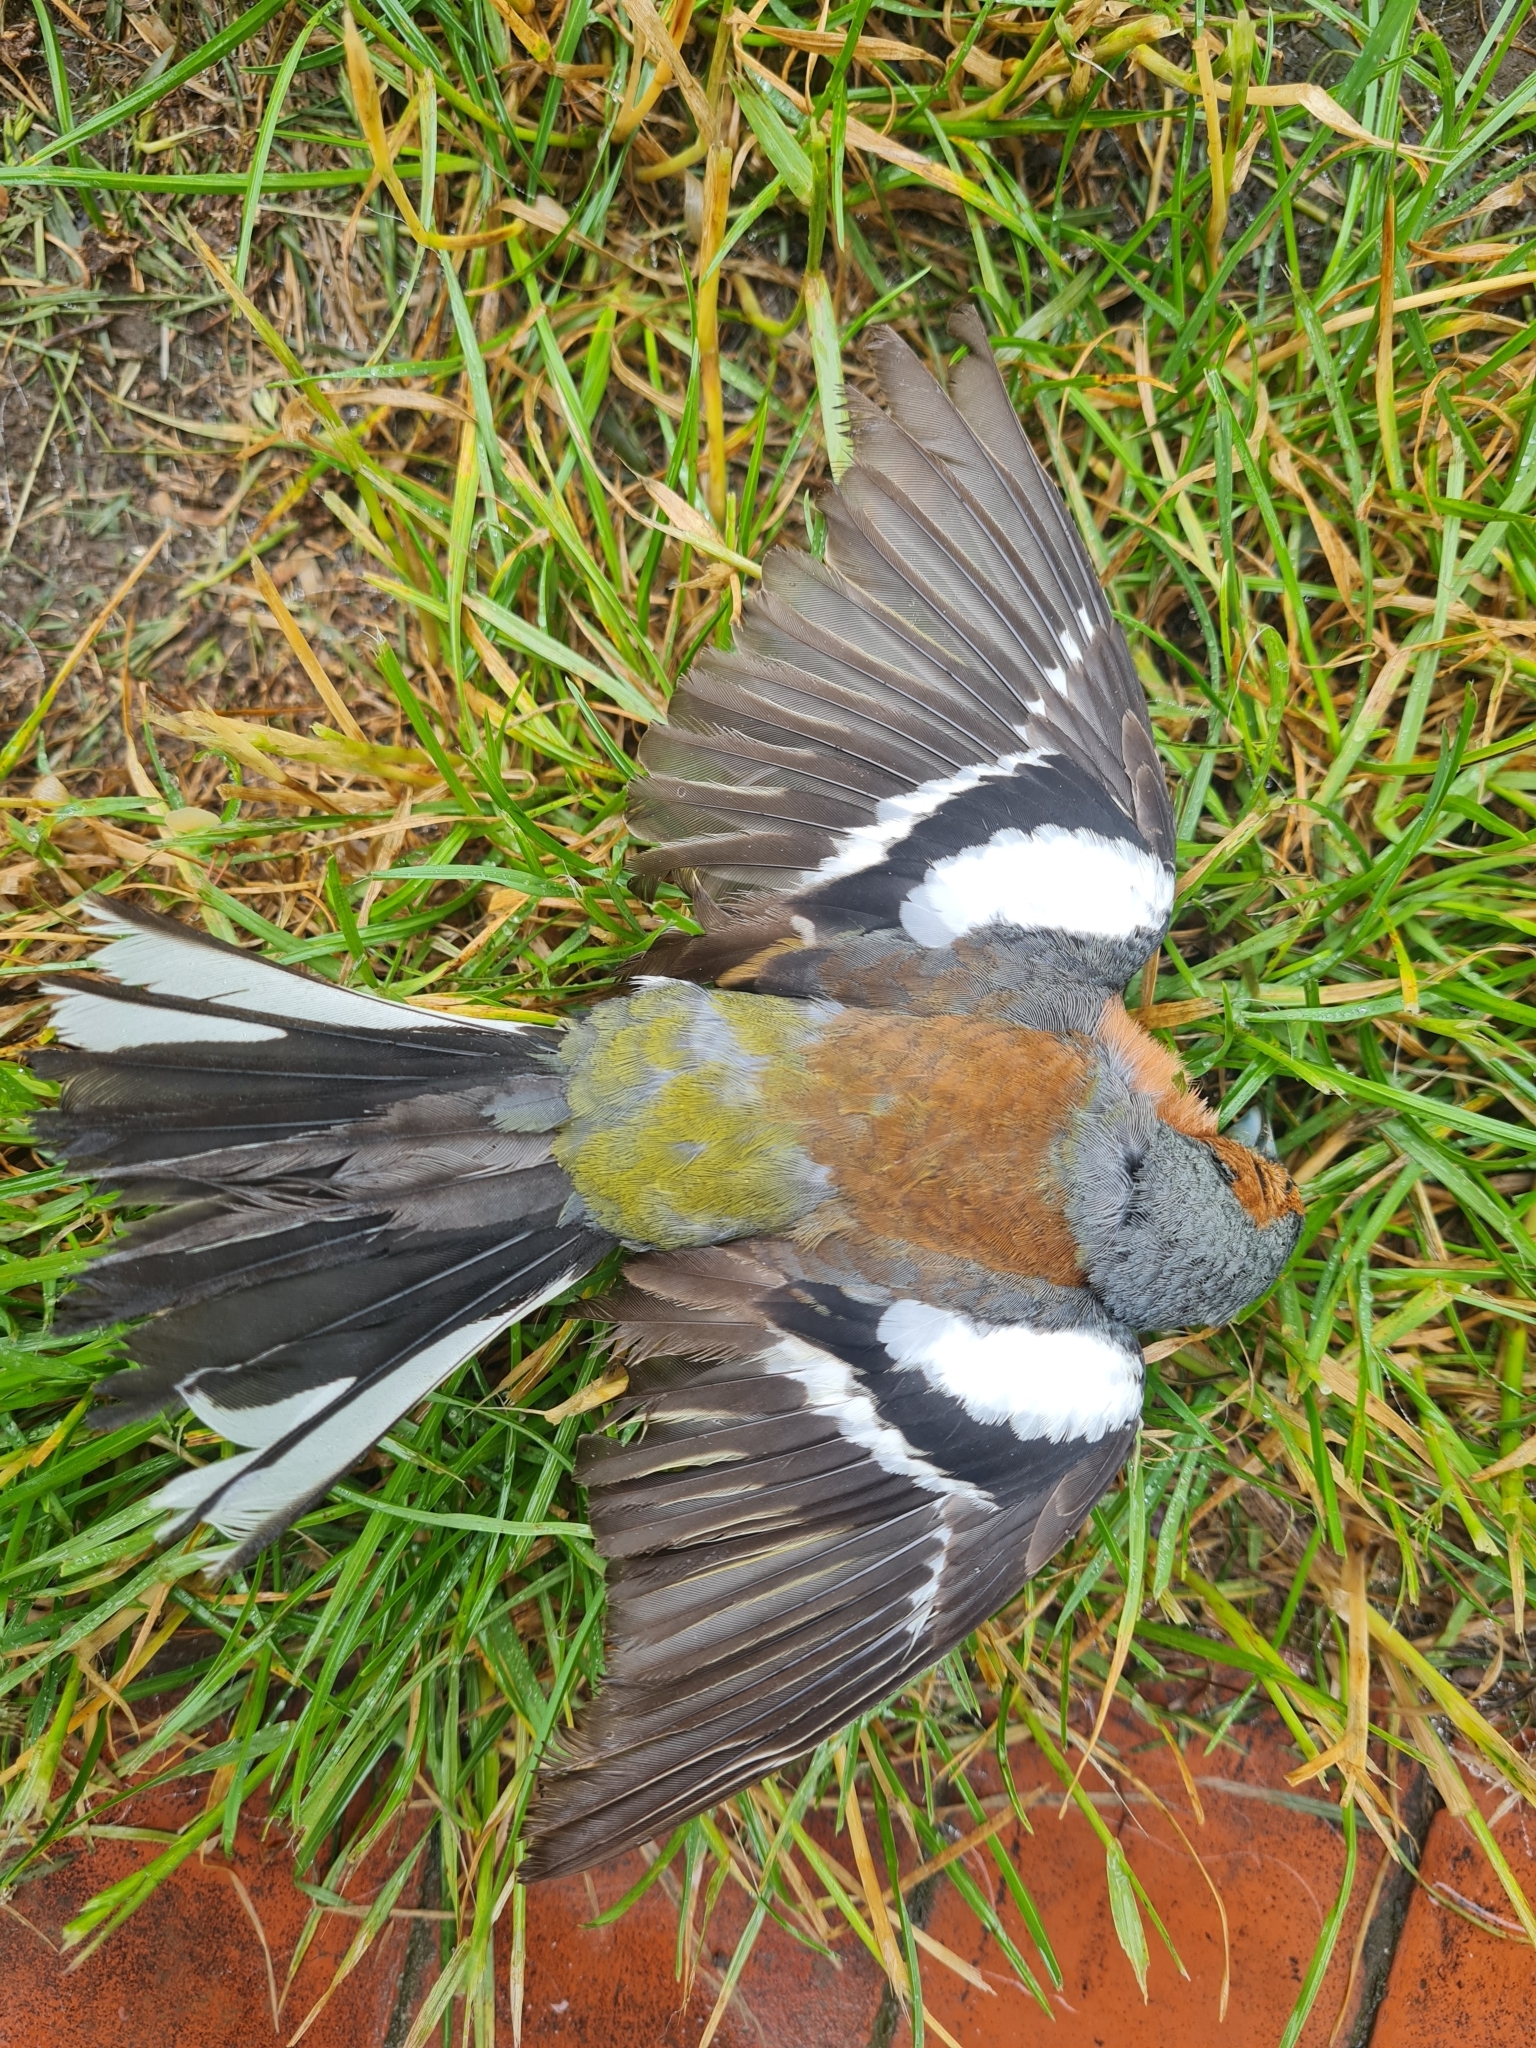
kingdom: Animalia
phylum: Chordata
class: Aves
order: Passeriformes
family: Fringillidae
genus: Fringilla
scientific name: Fringilla coelebs
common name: Common chaffinch
